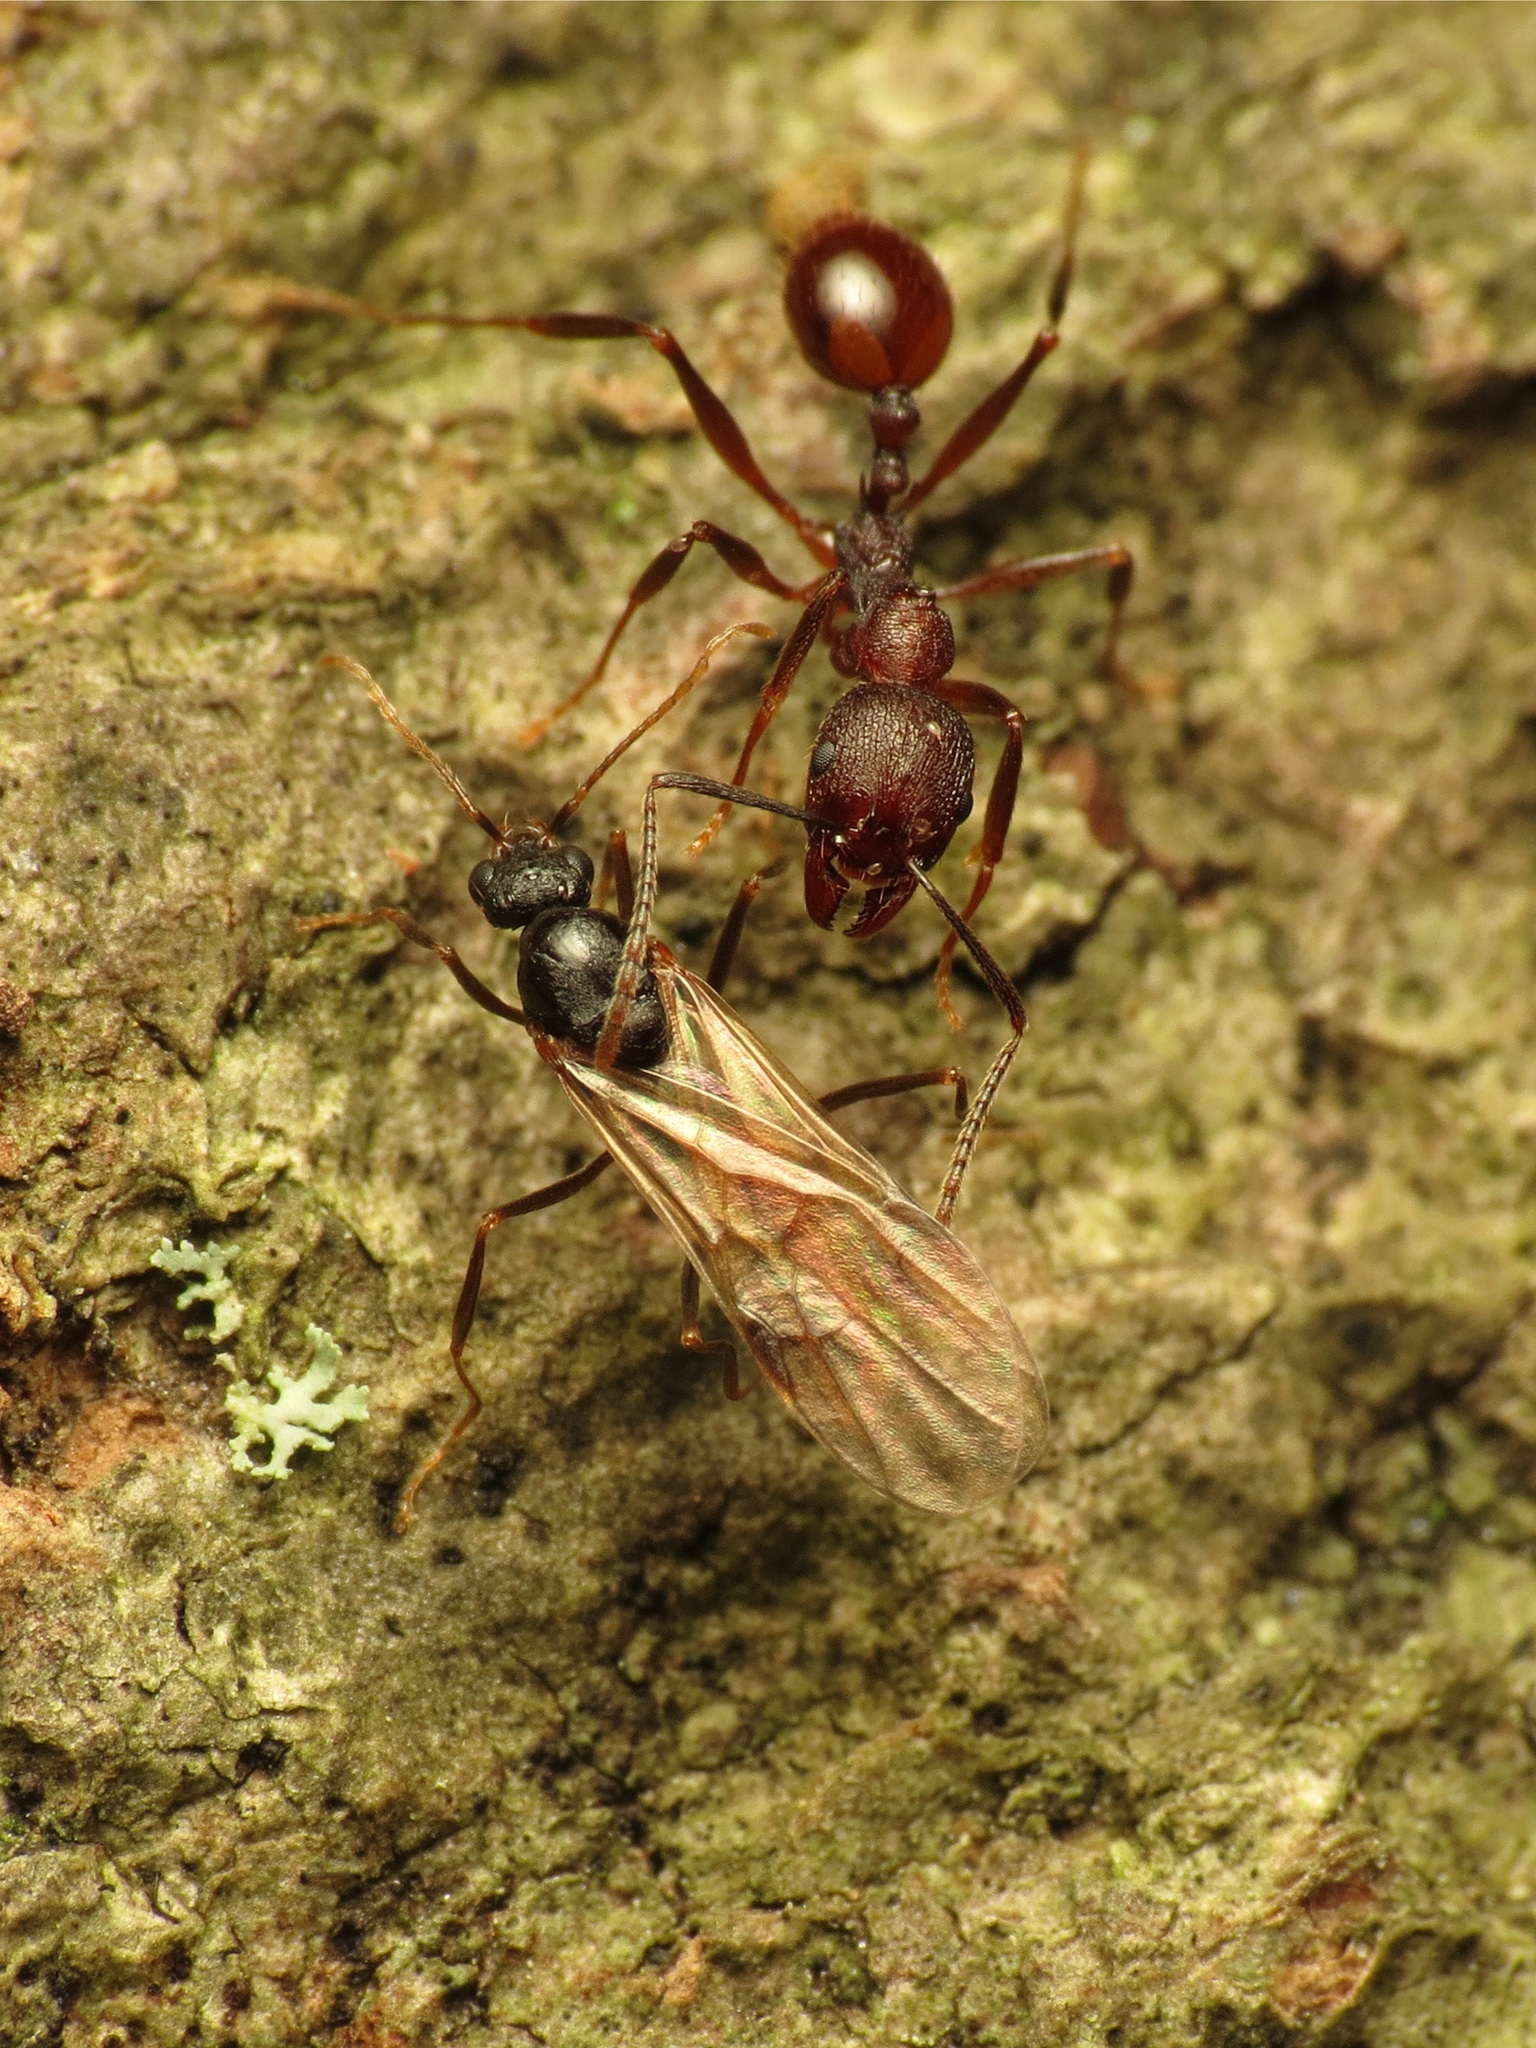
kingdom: Animalia
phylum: Arthropoda
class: Insecta
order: Hymenoptera
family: Formicidae
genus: Aphaenogaster
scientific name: Aphaenogaster fulva
